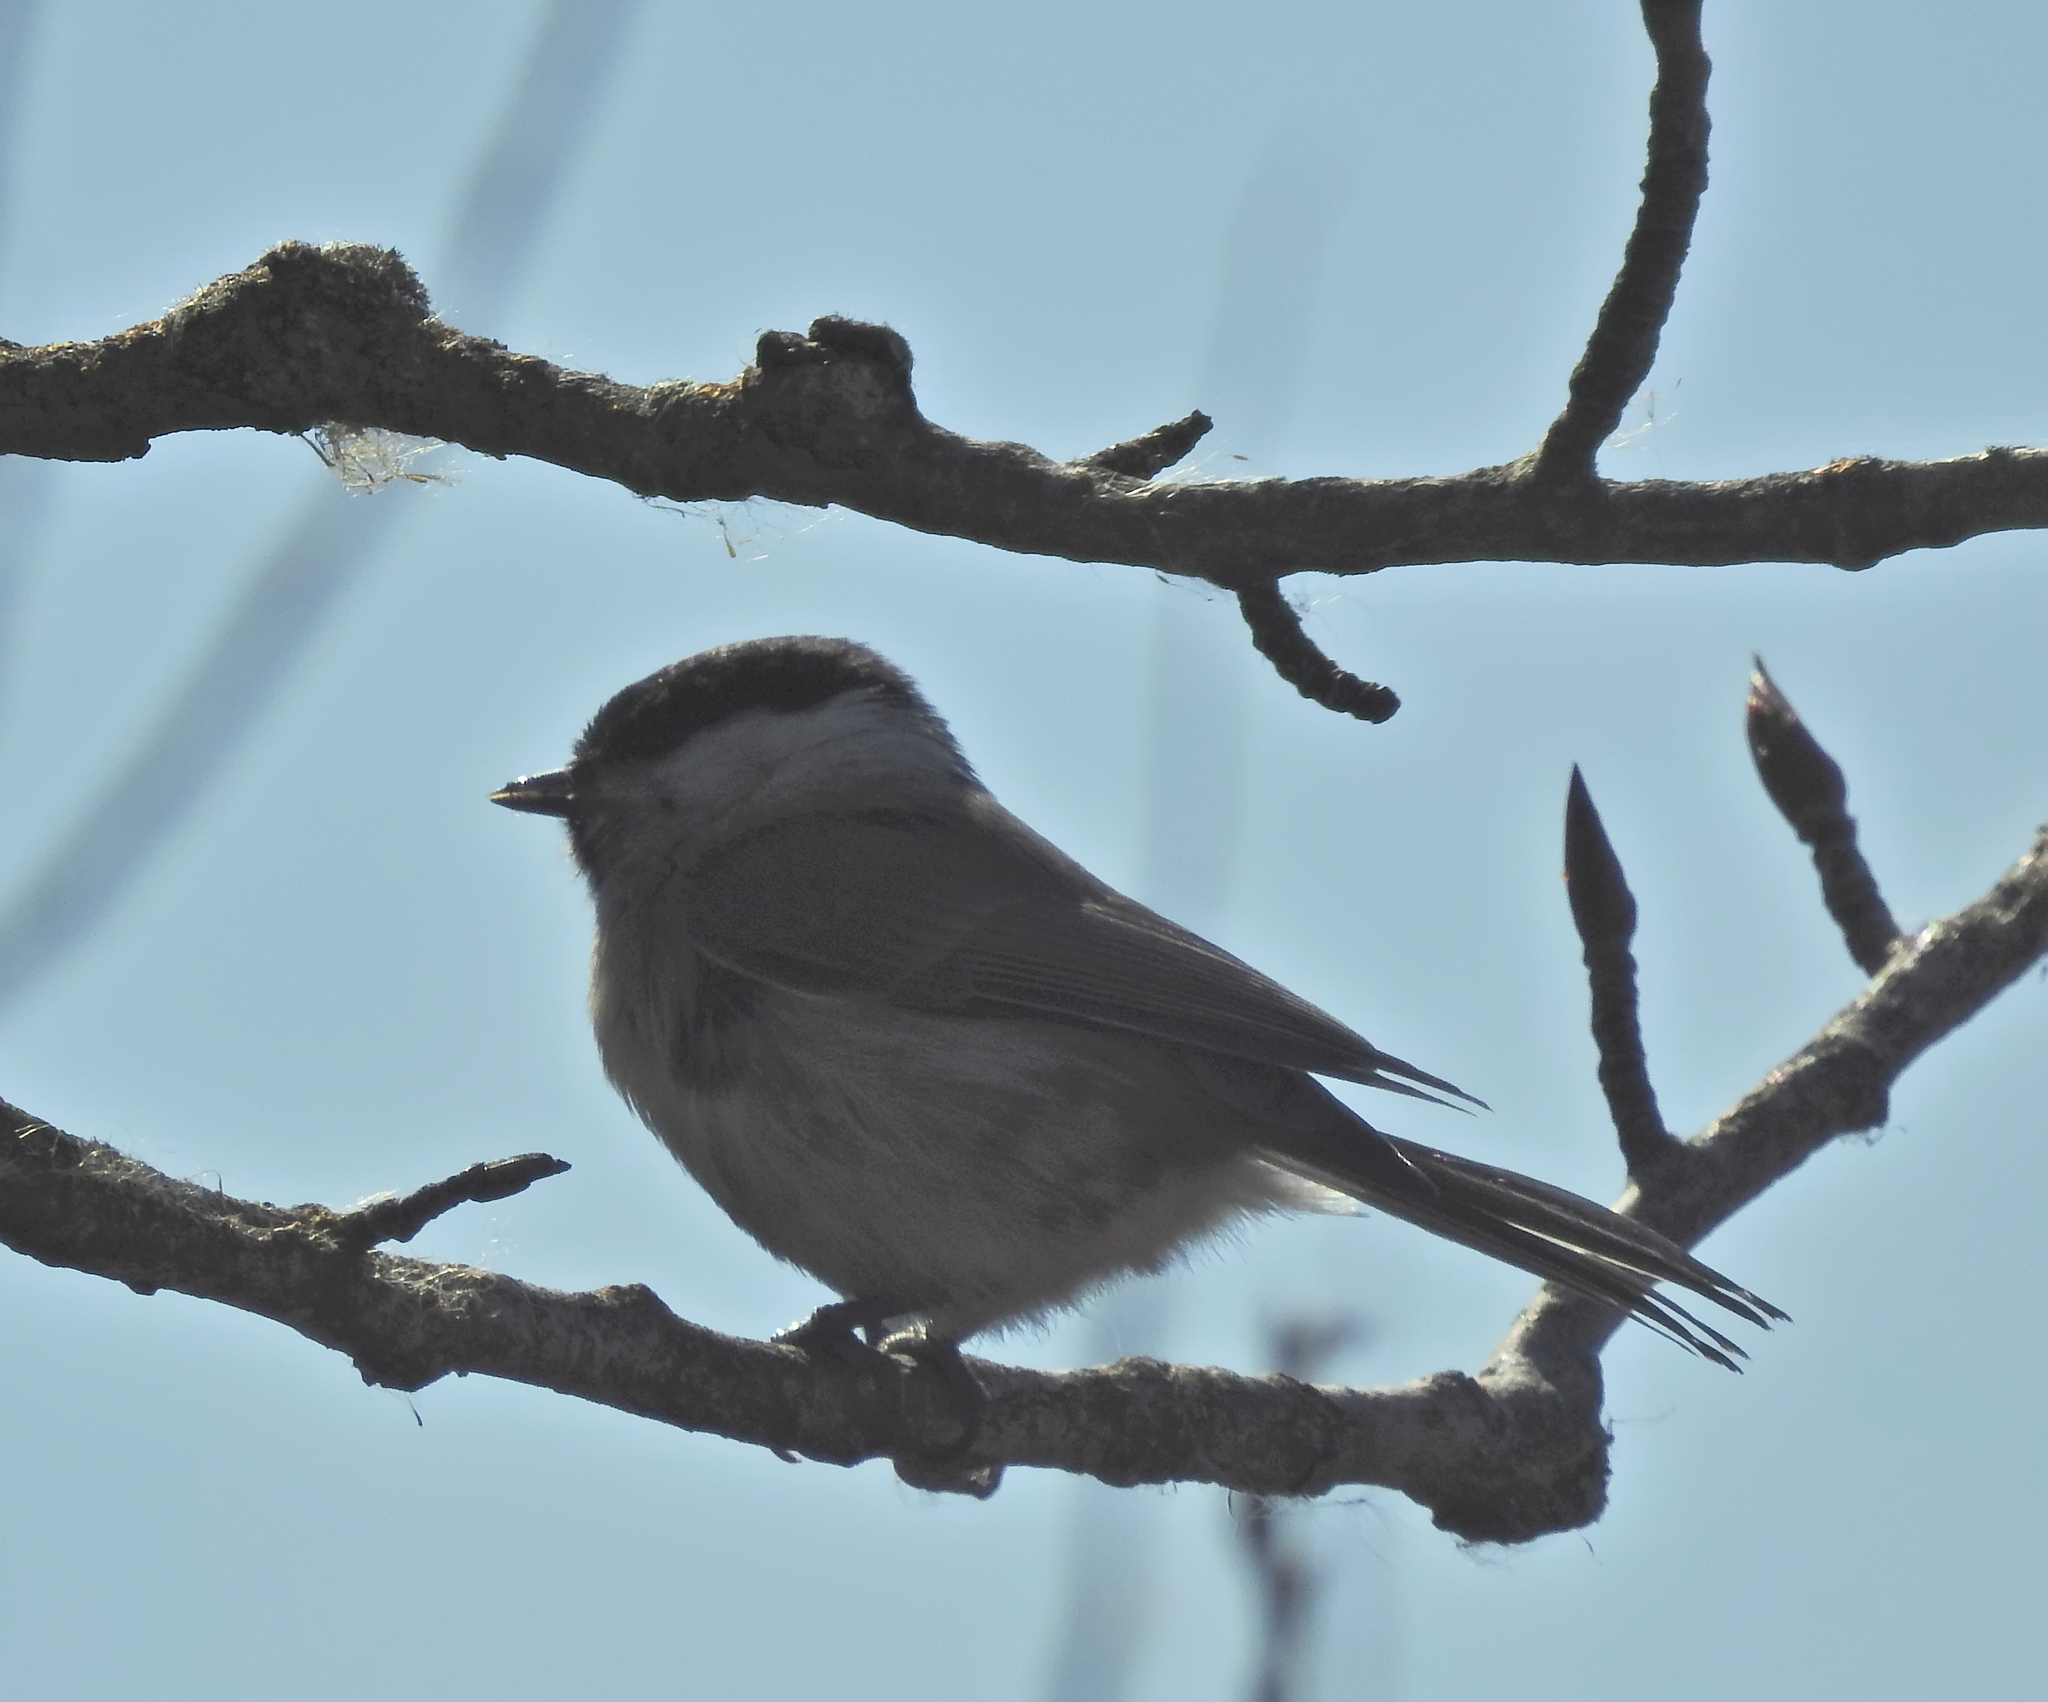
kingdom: Animalia
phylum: Chordata
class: Aves
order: Passeriformes
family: Paridae
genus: Poecile
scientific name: Poecile montanus
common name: Willow tit
